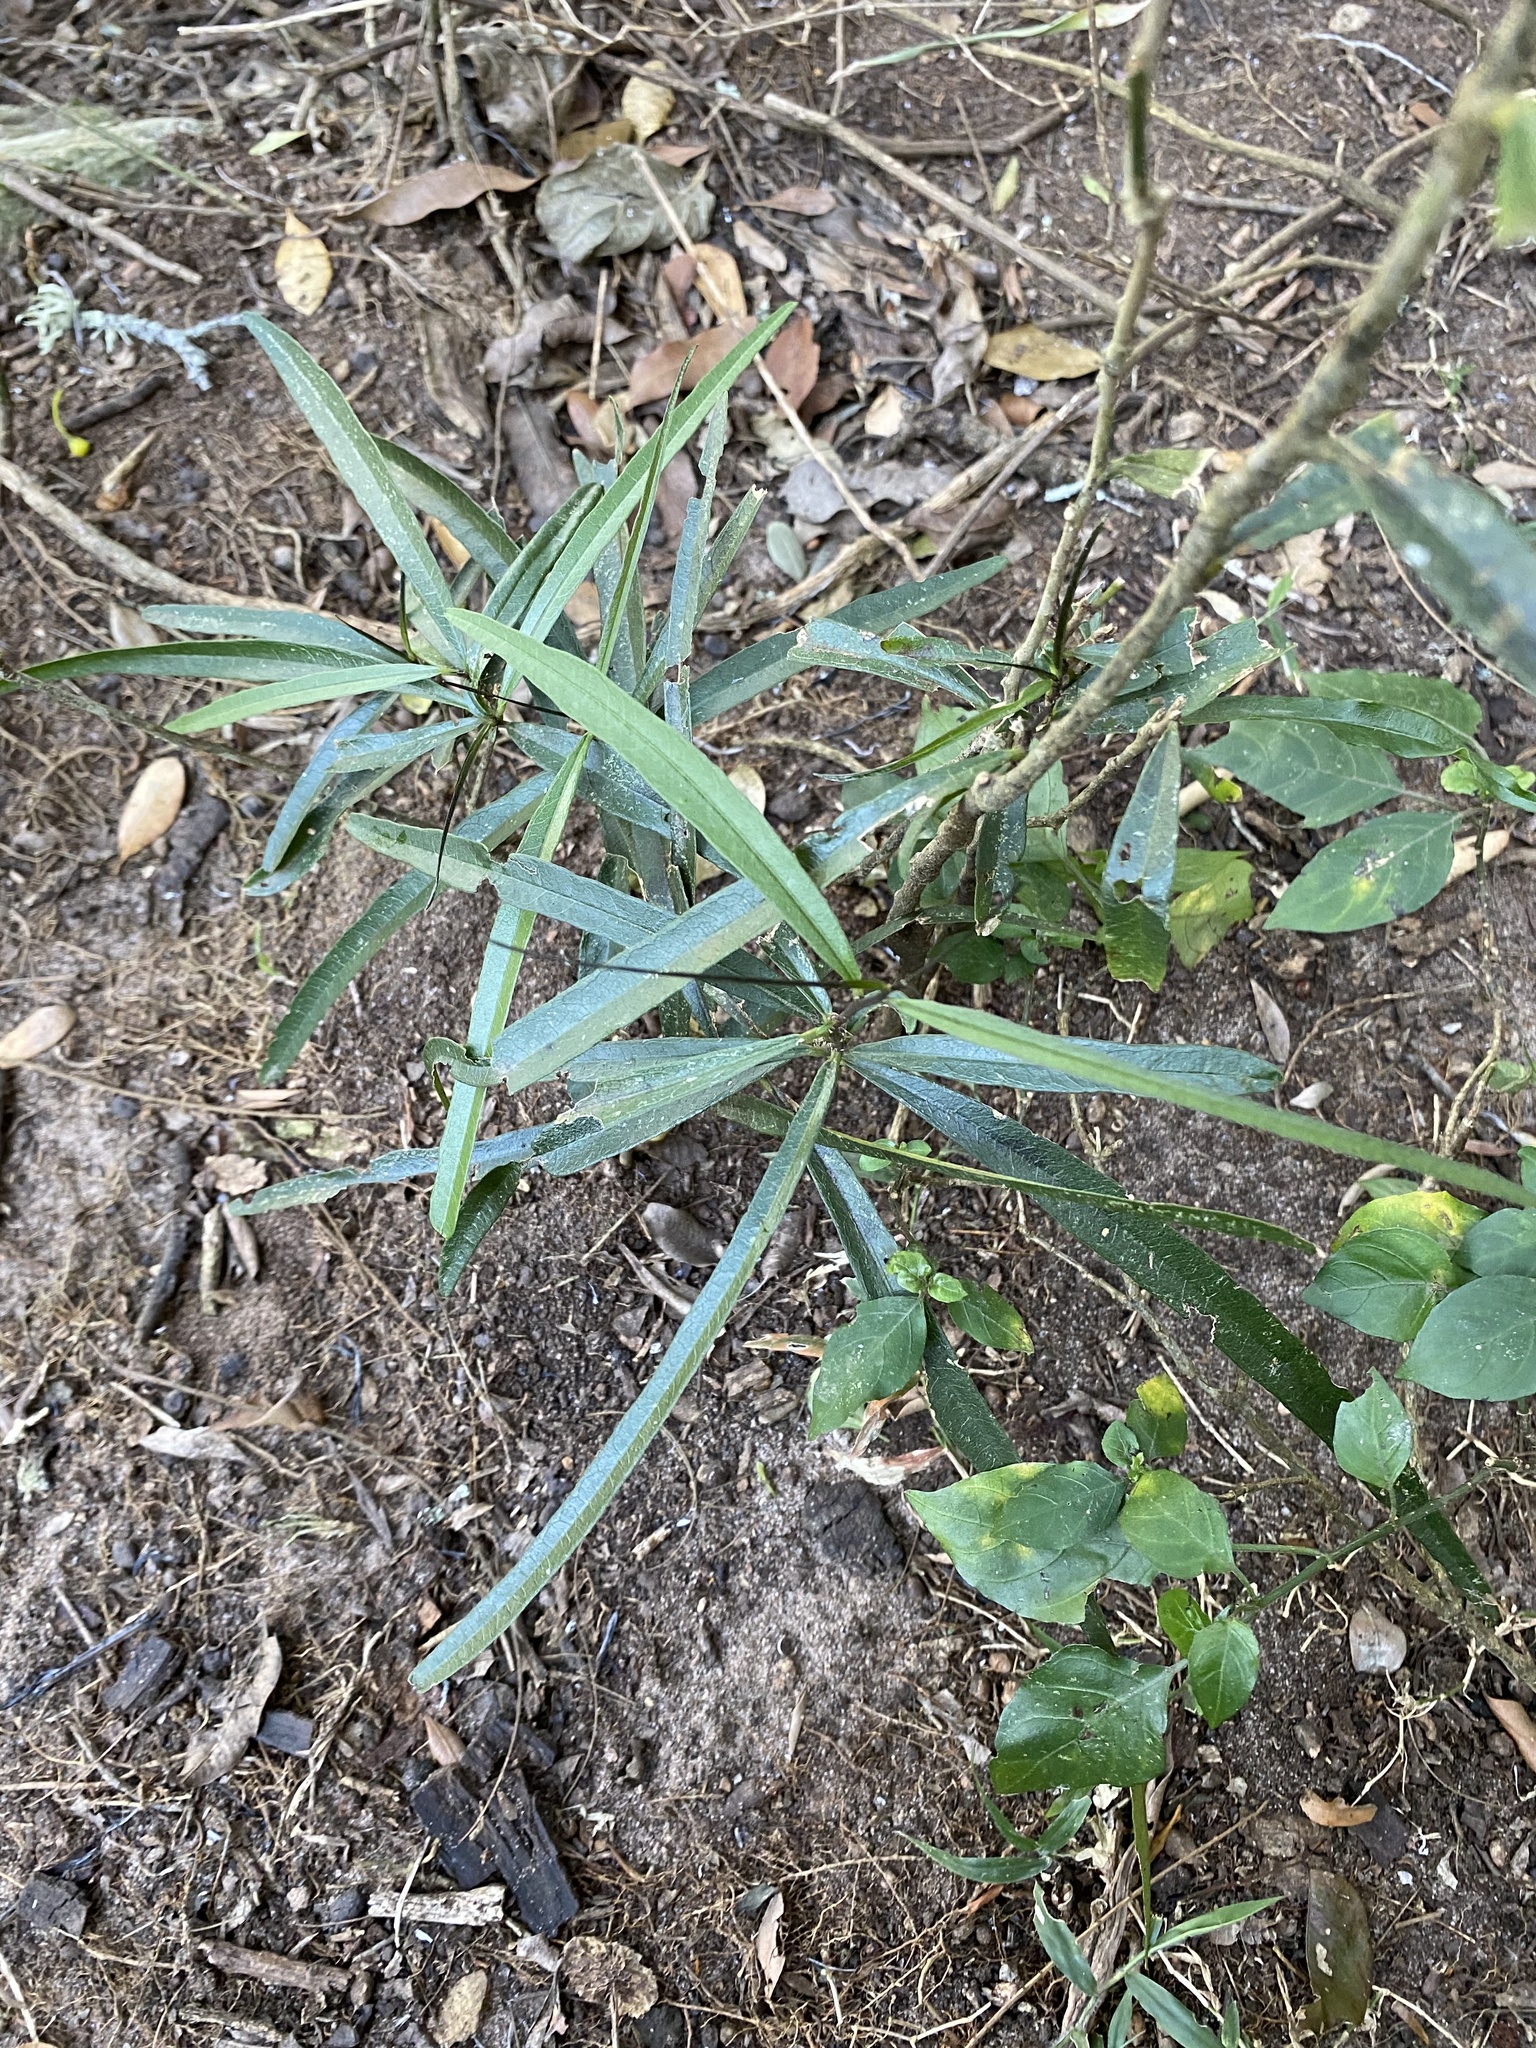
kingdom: Plantae
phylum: Tracheophyta
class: Liliopsida
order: Pandanales
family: Velloziaceae
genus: Xerophyta
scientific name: Xerophyta elegans
